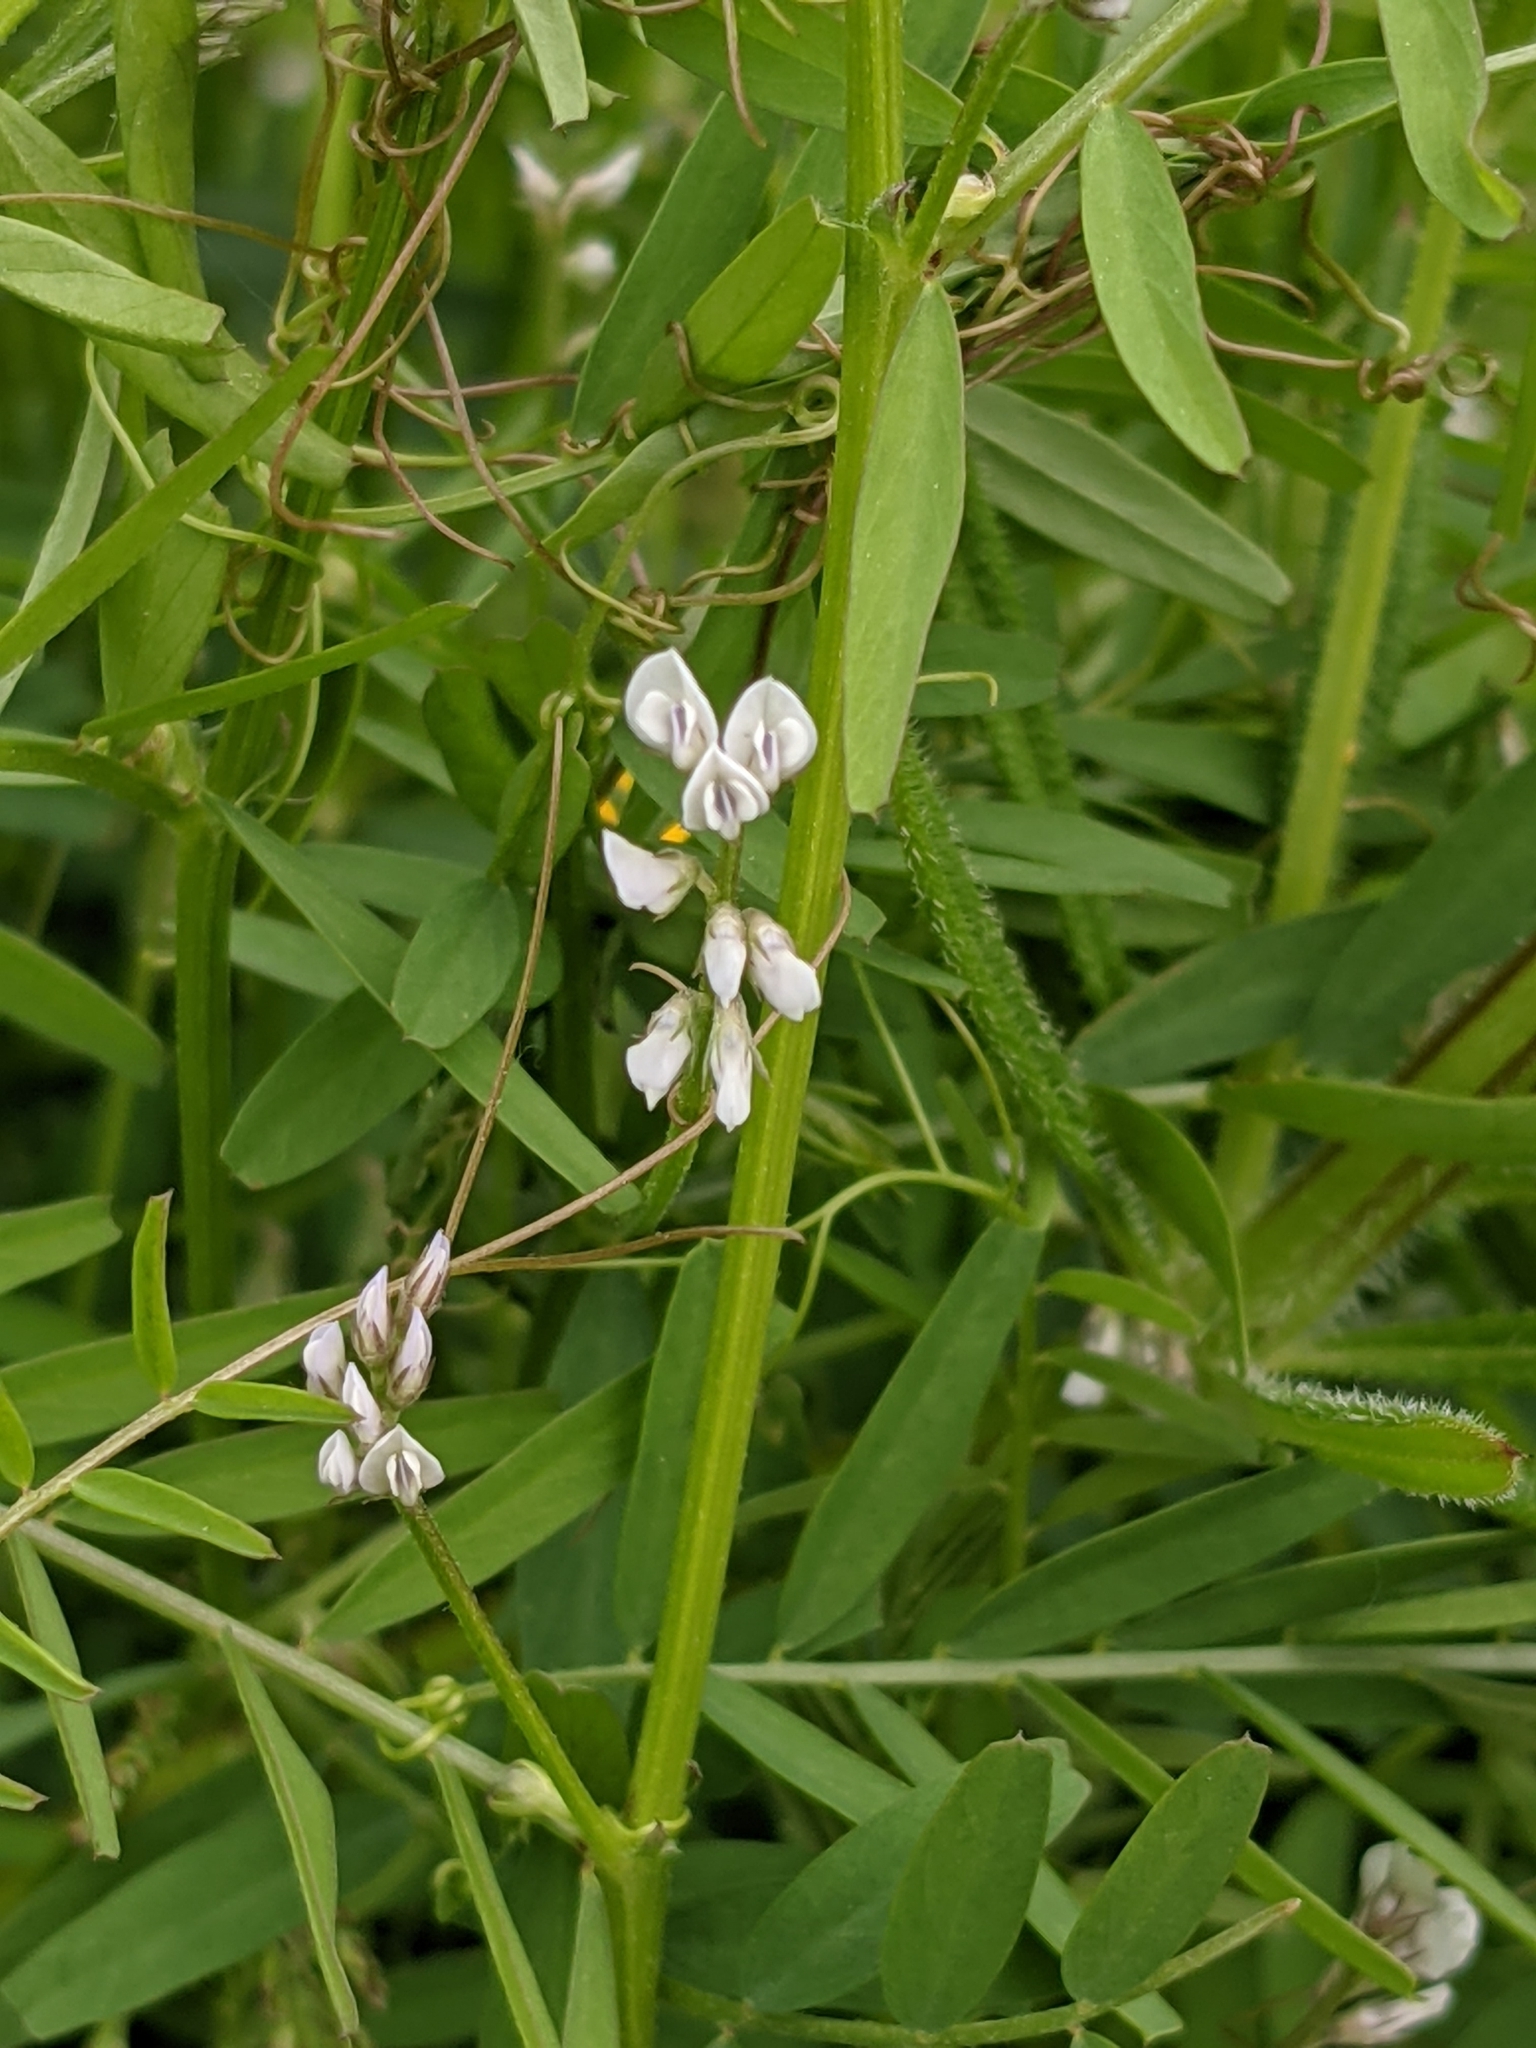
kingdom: Plantae
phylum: Tracheophyta
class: Magnoliopsida
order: Fabales
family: Fabaceae
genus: Vicia
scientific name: Vicia hirsuta
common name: Tiny vetch
